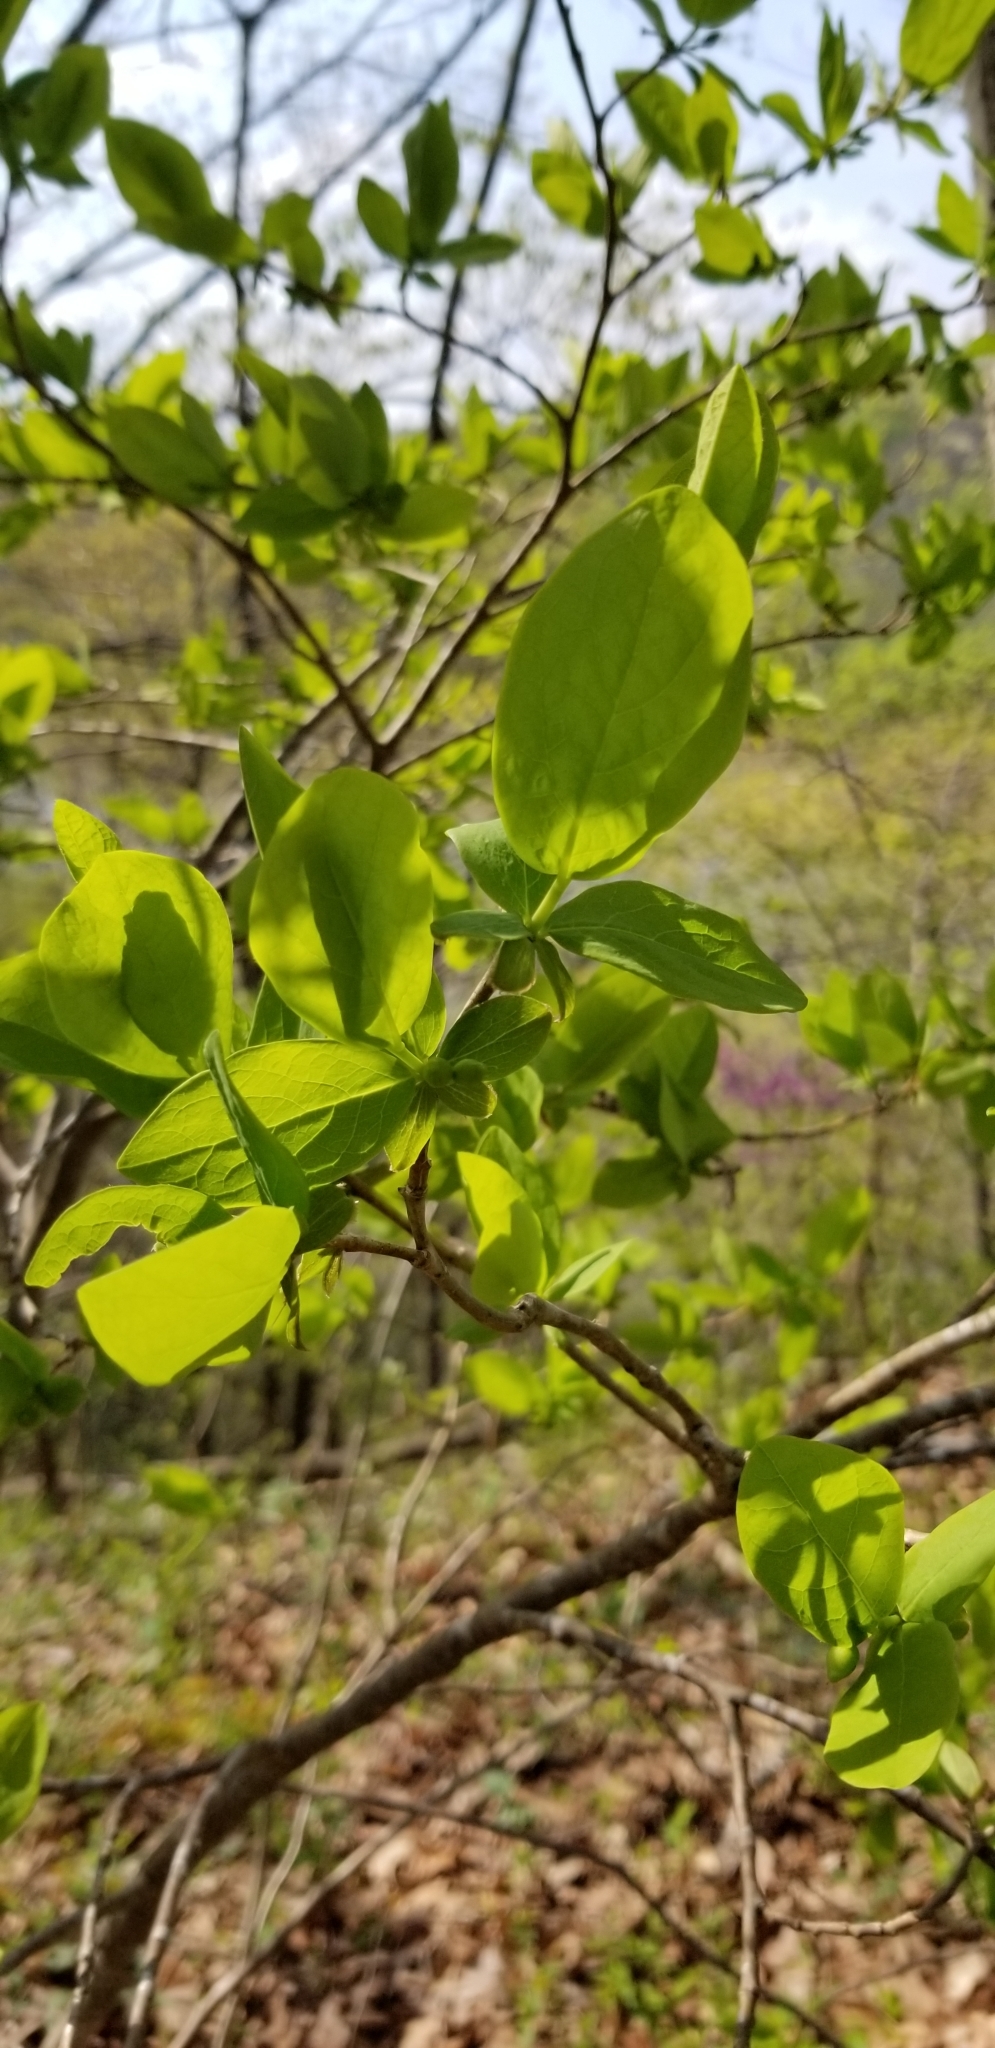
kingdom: Plantae
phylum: Tracheophyta
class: Magnoliopsida
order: Malvales
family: Thymelaeaceae
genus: Dirca
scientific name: Dirca palustris
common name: Leatherwood
